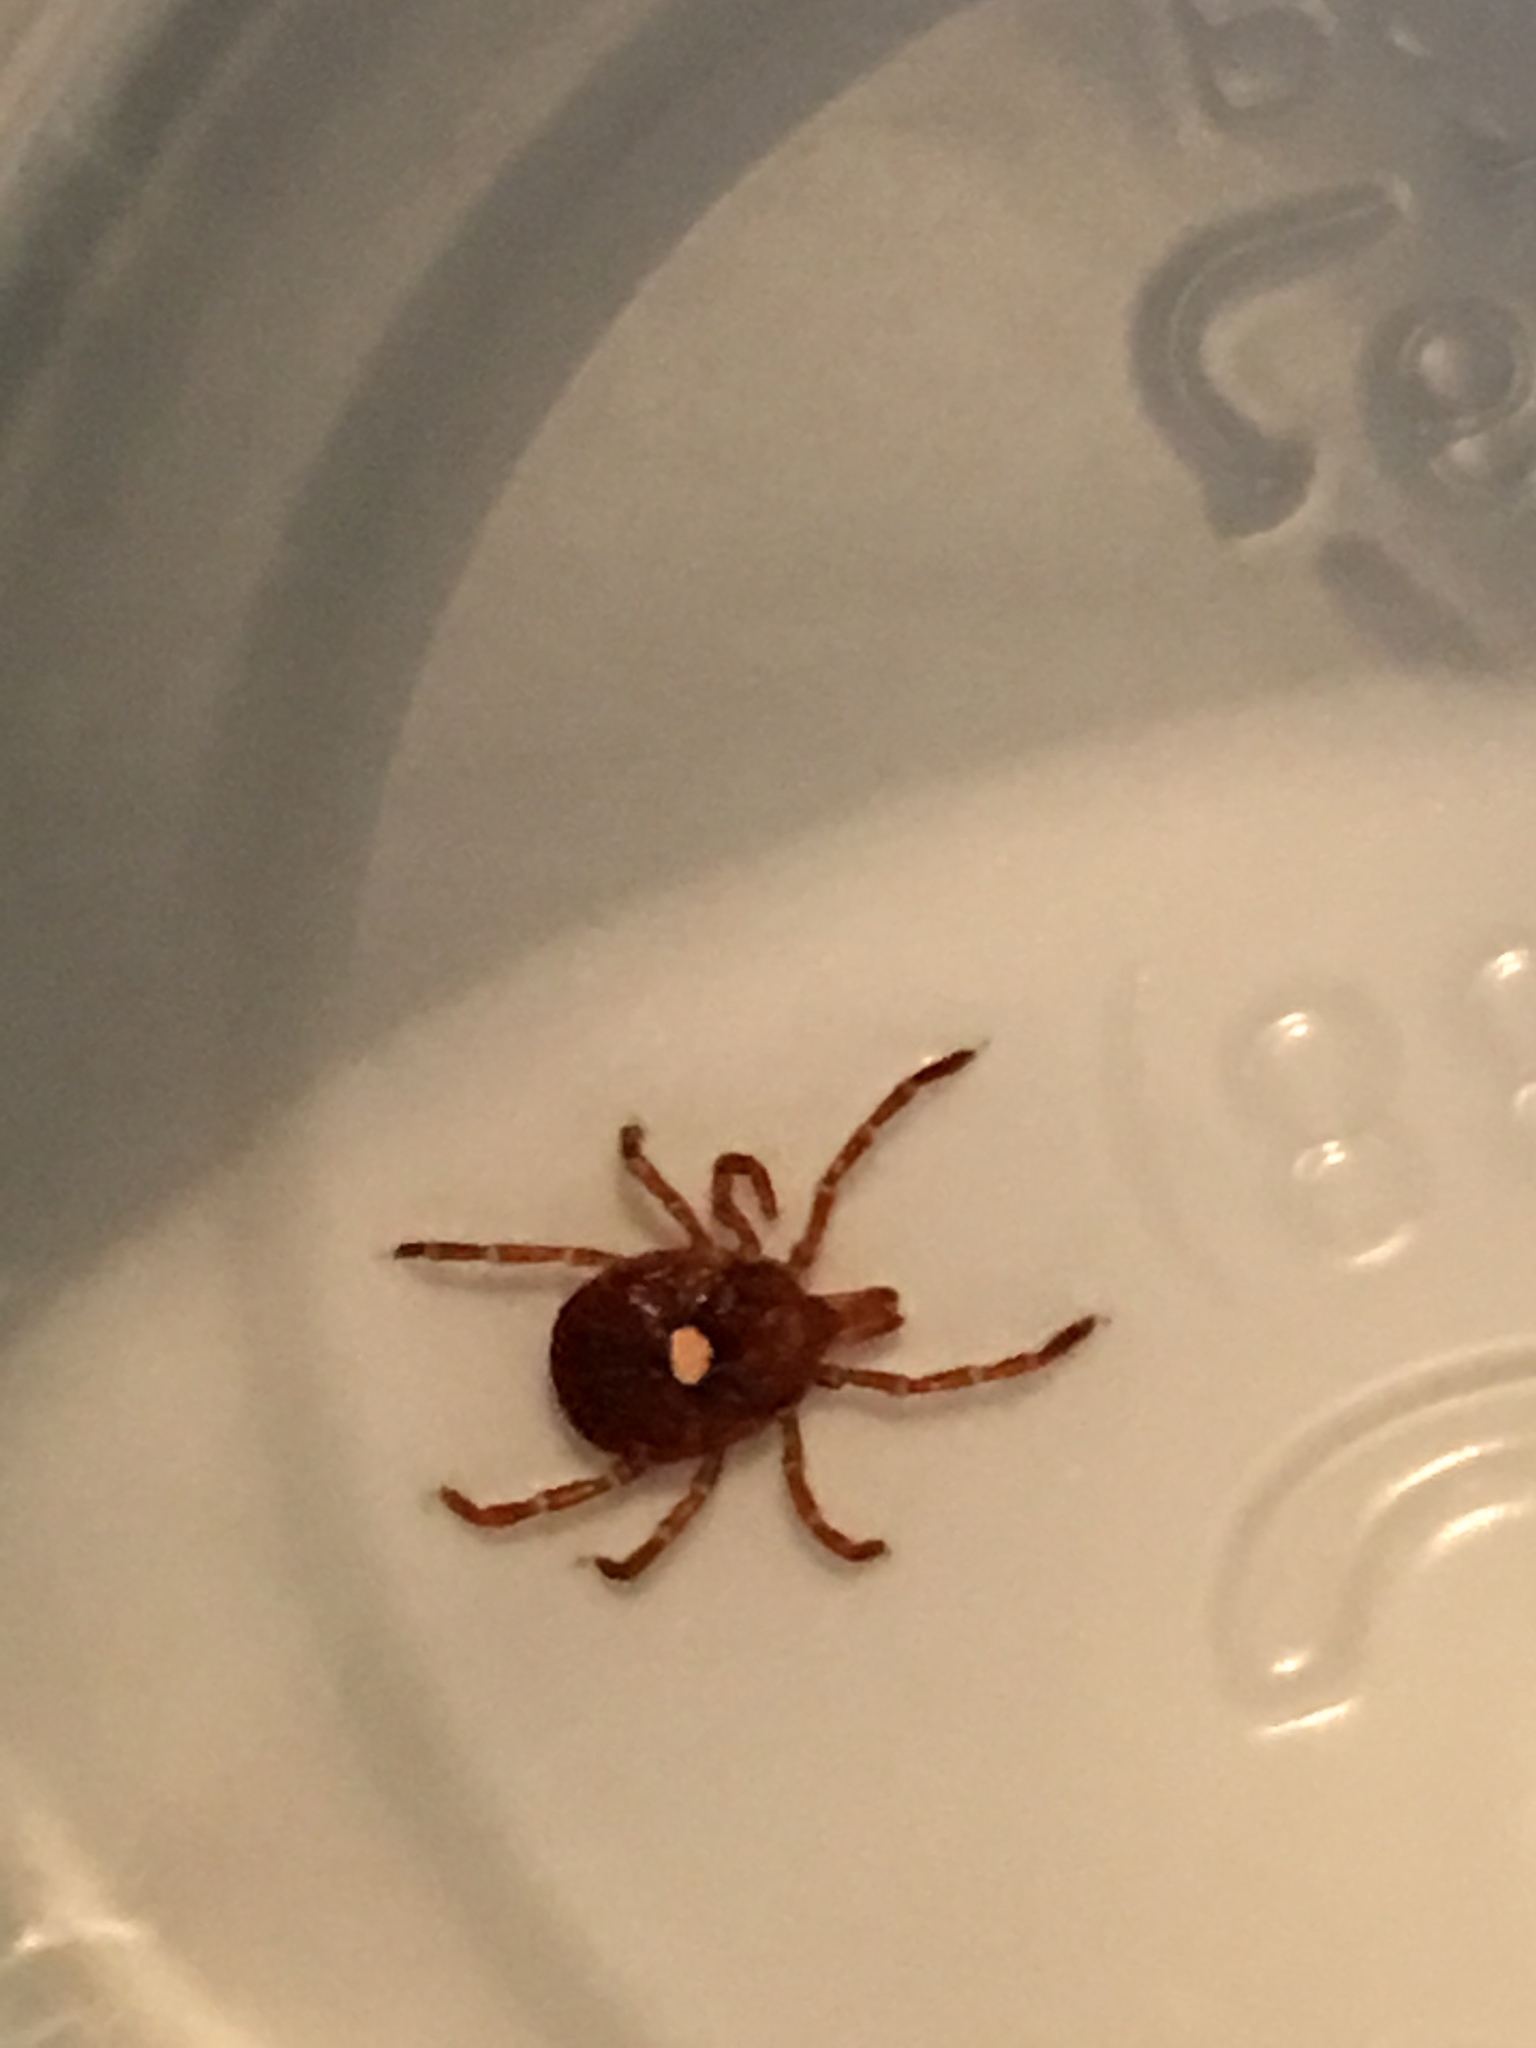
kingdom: Animalia
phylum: Arthropoda
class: Arachnida
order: Ixodida
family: Ixodidae
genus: Amblyomma
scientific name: Amblyomma americanum
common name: Lone star tick
